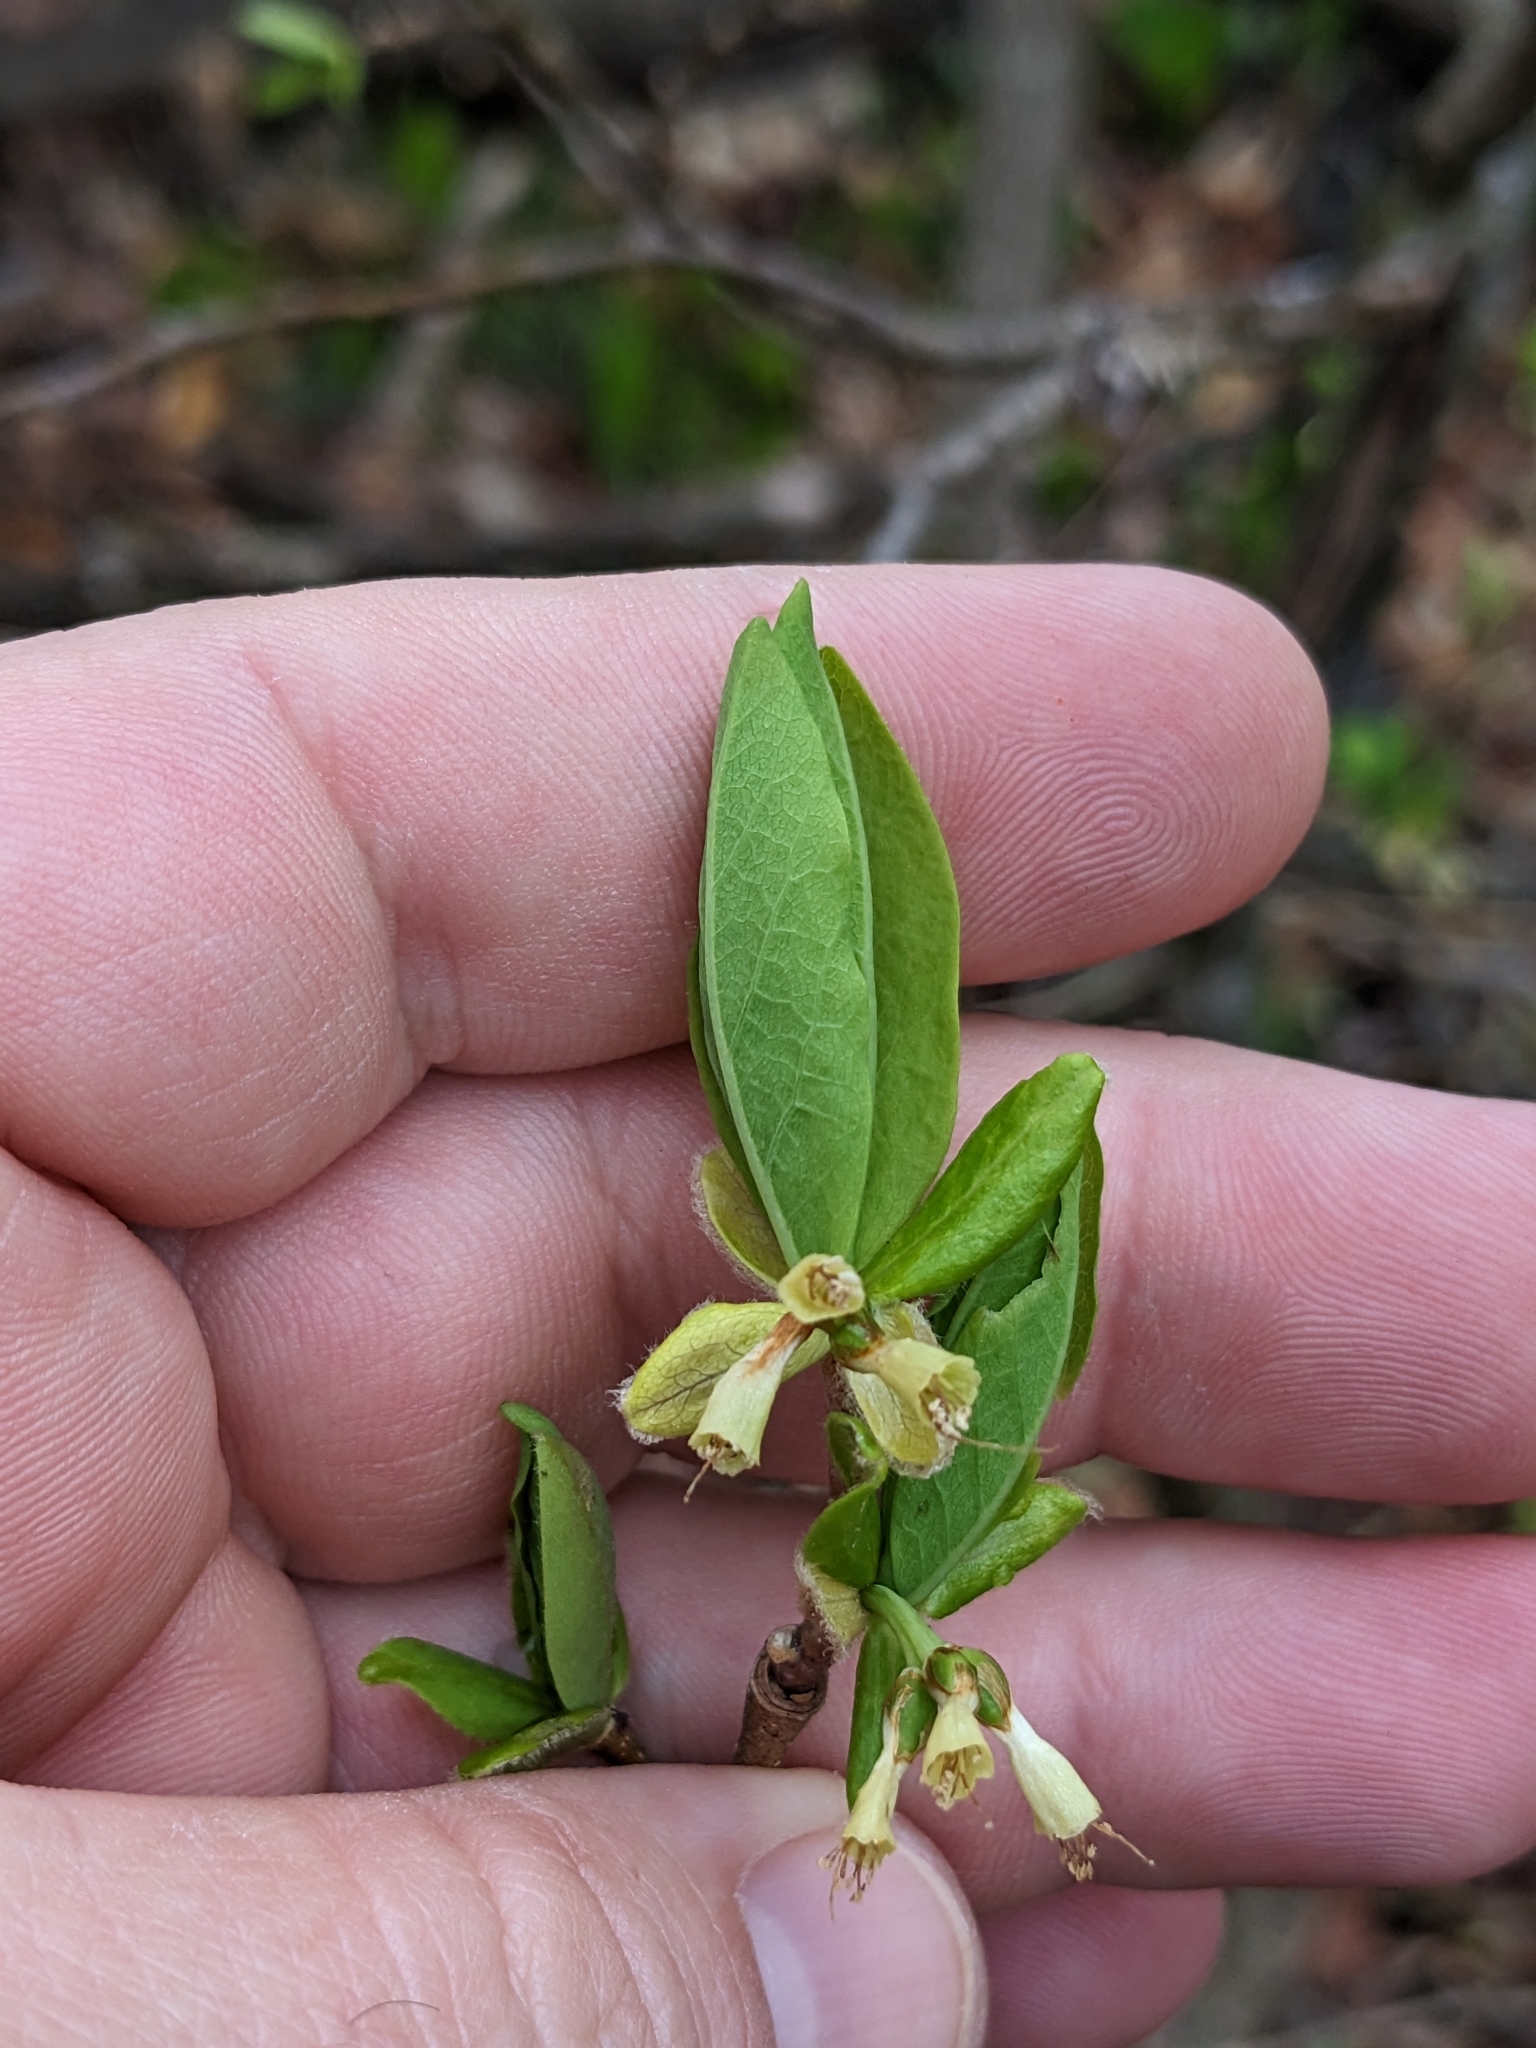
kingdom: Plantae
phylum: Tracheophyta
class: Magnoliopsida
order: Malvales
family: Thymelaeaceae
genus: Dirca
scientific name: Dirca palustris
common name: Leatherwood
